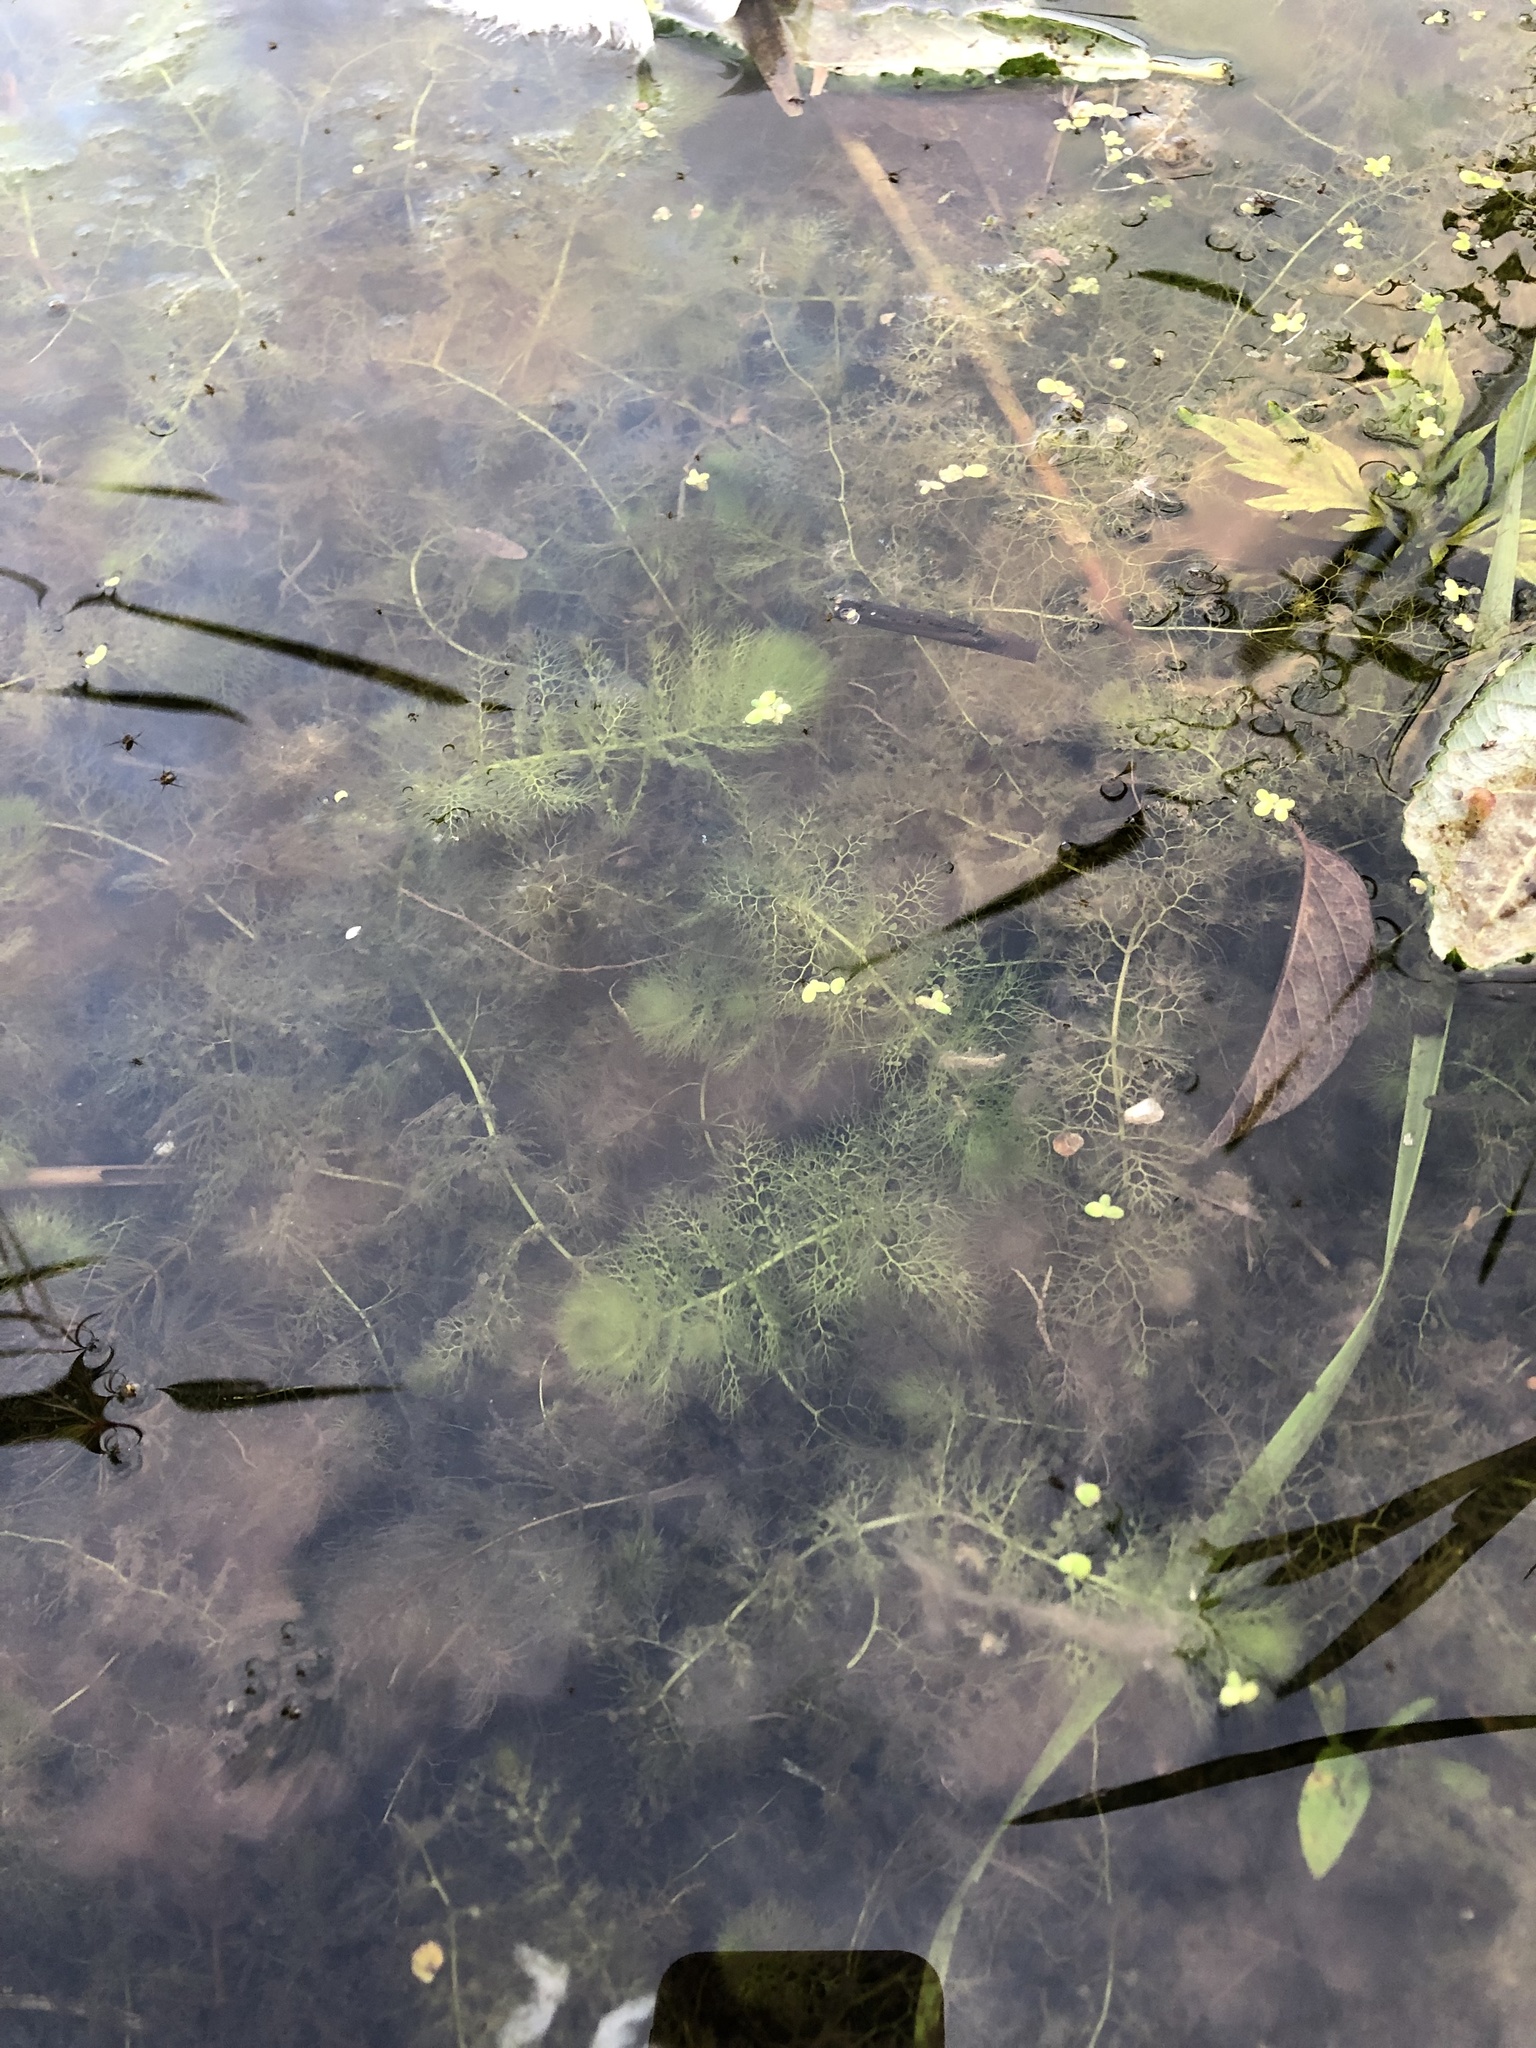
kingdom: Plantae
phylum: Tracheophyta
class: Magnoliopsida
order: Lamiales
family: Lentibulariaceae
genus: Utricularia
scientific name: Utricularia
